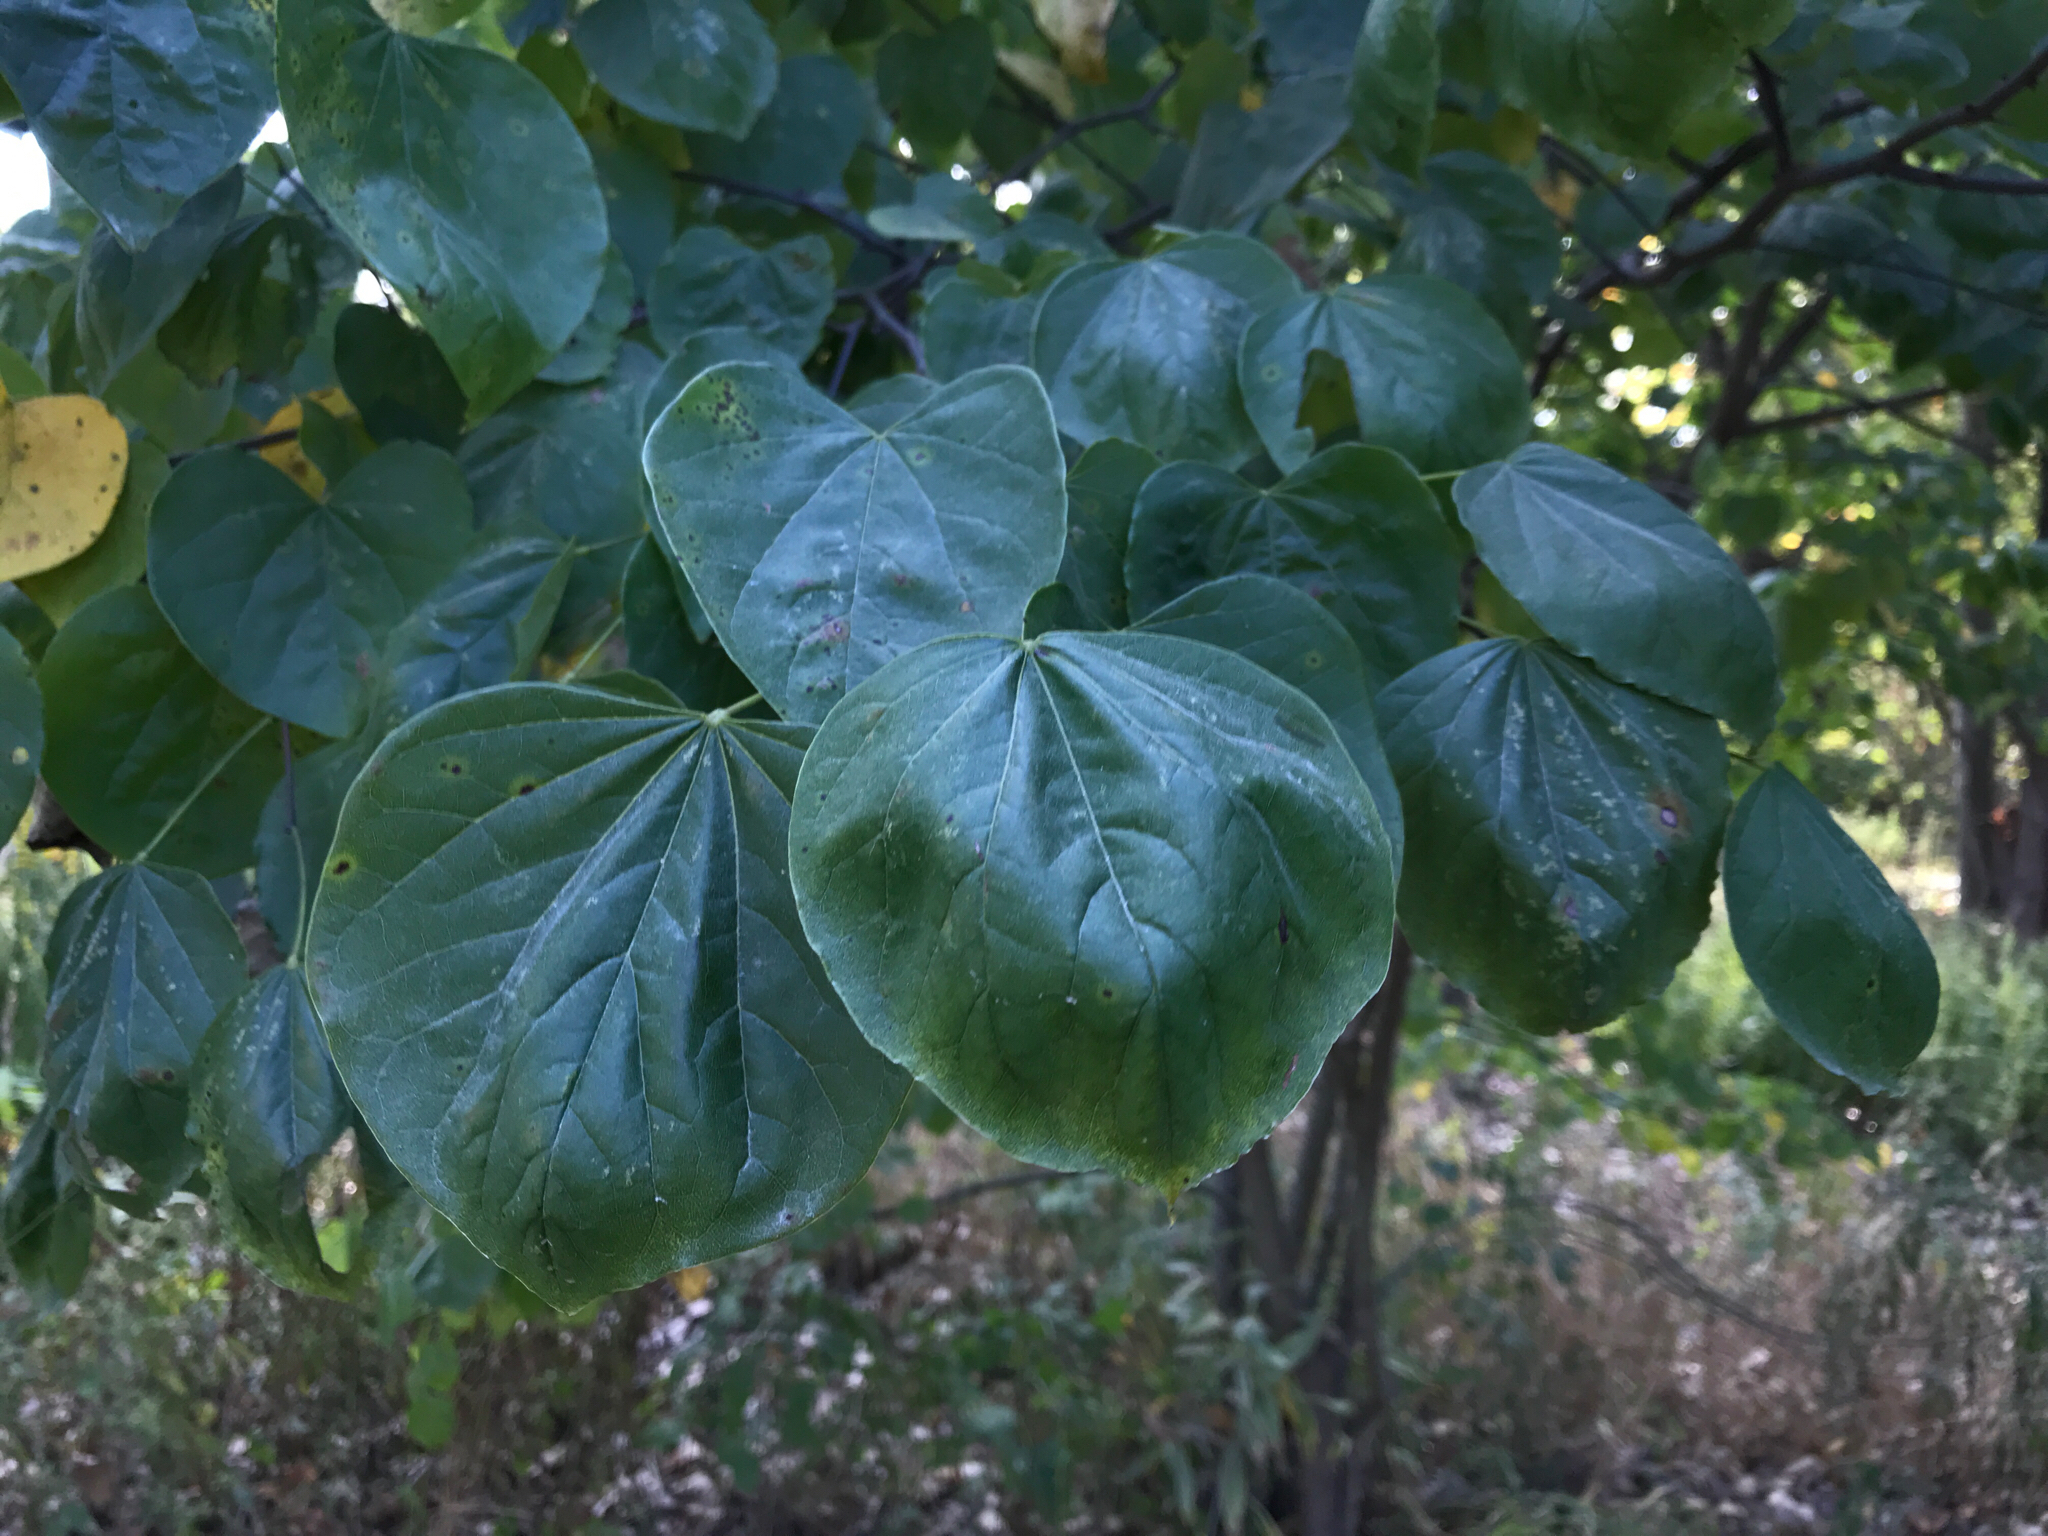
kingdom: Plantae
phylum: Tracheophyta
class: Magnoliopsida
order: Fabales
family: Fabaceae
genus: Cercis
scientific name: Cercis canadensis
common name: Eastern redbud
